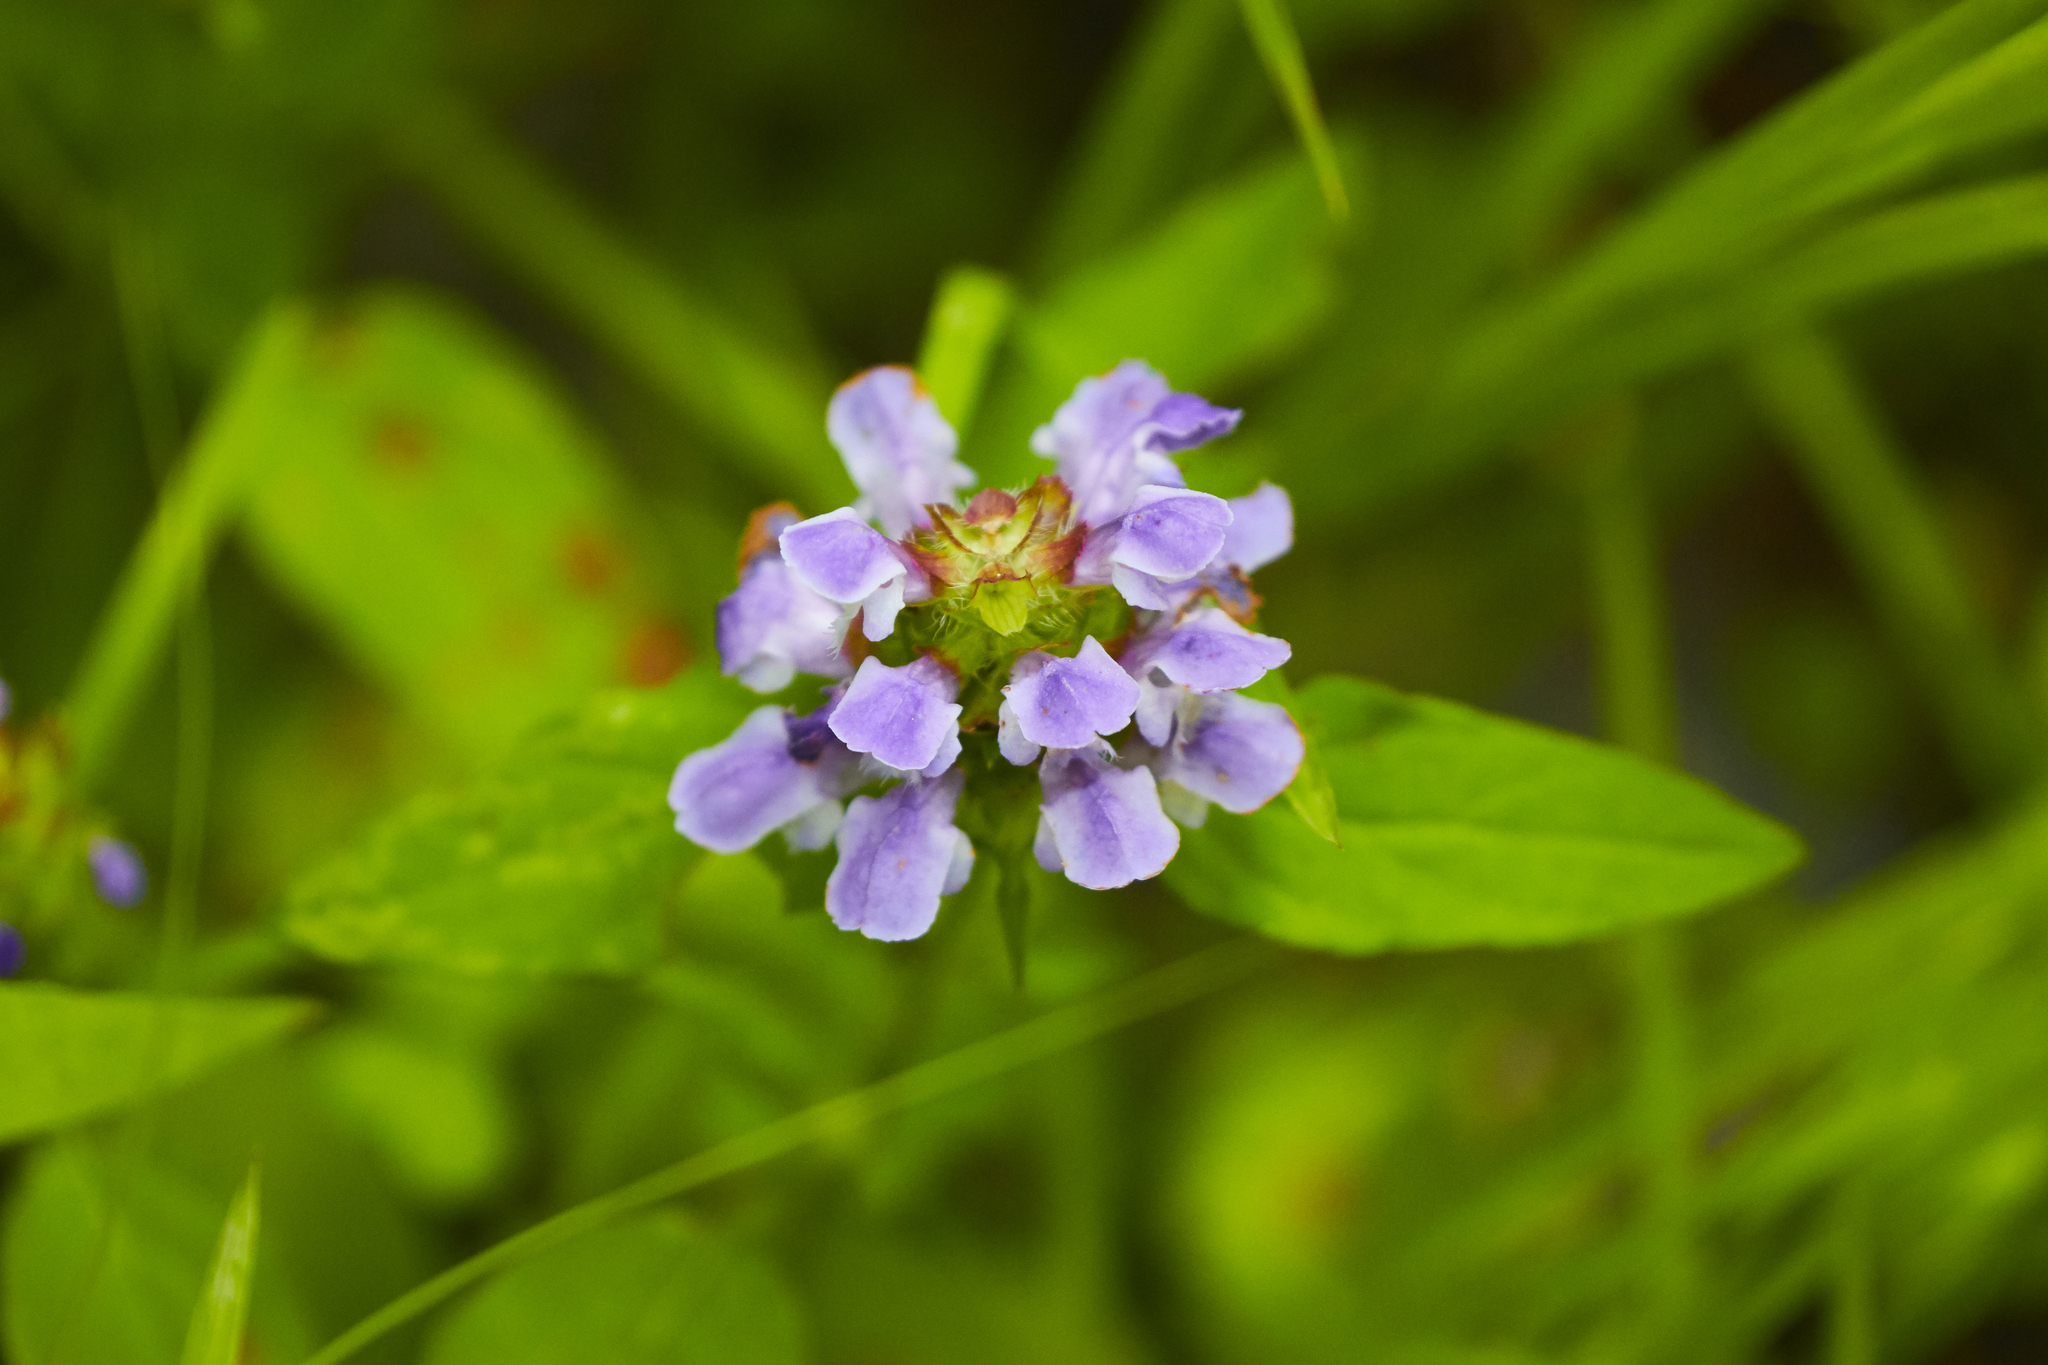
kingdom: Plantae
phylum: Tracheophyta
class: Magnoliopsida
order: Lamiales
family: Lamiaceae
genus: Prunella
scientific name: Prunella vulgaris
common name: Heal-all
